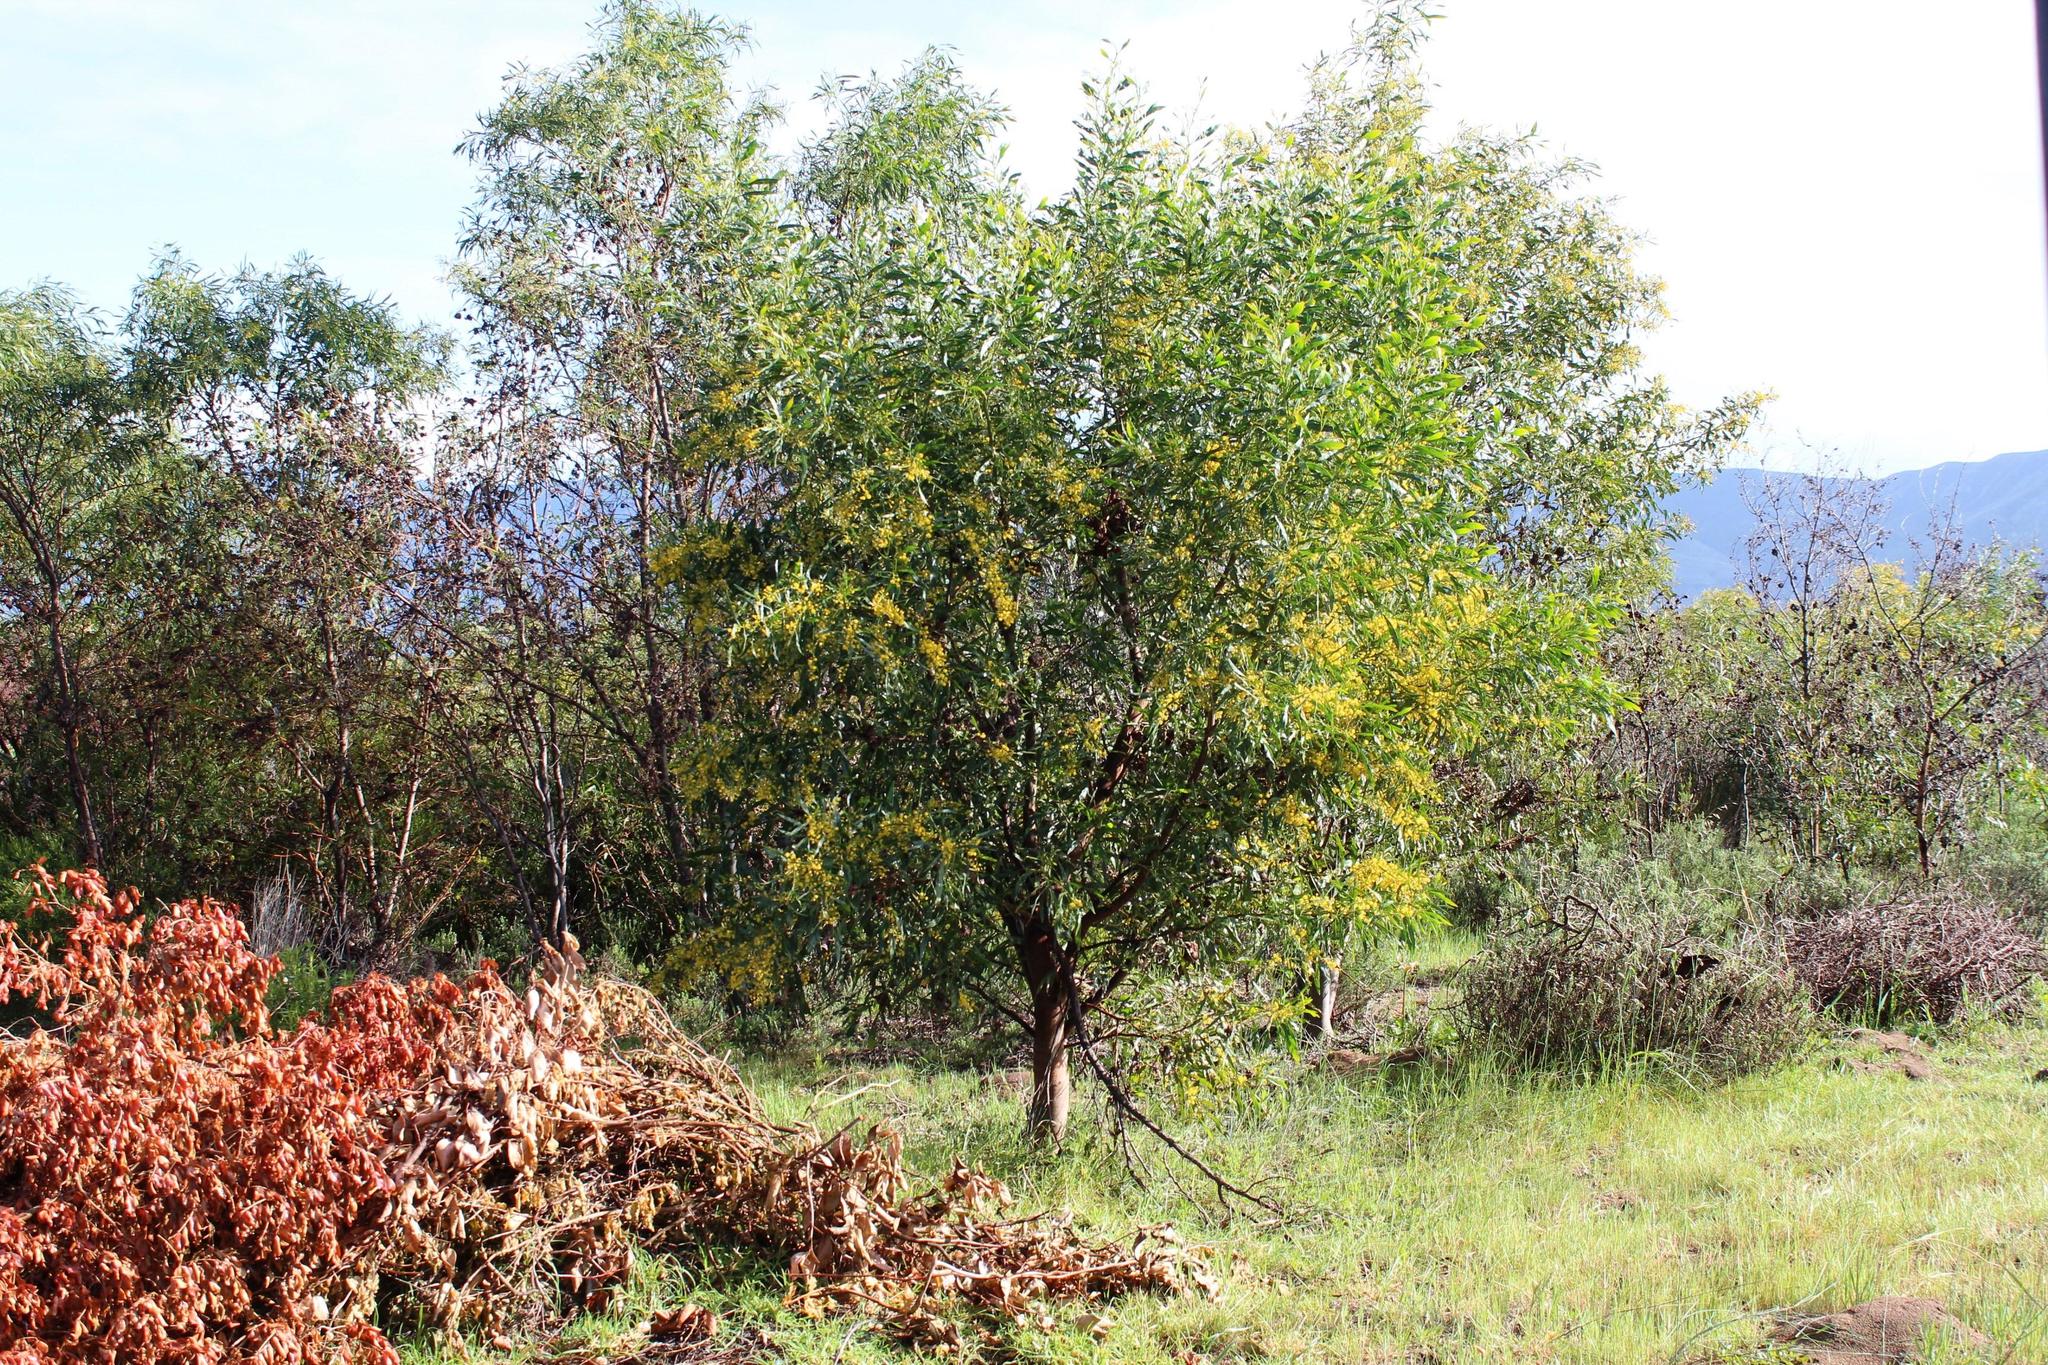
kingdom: Plantae
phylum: Tracheophyta
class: Magnoliopsida
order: Fabales
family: Fabaceae
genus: Acacia
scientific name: Acacia saligna
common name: Orange wattle
